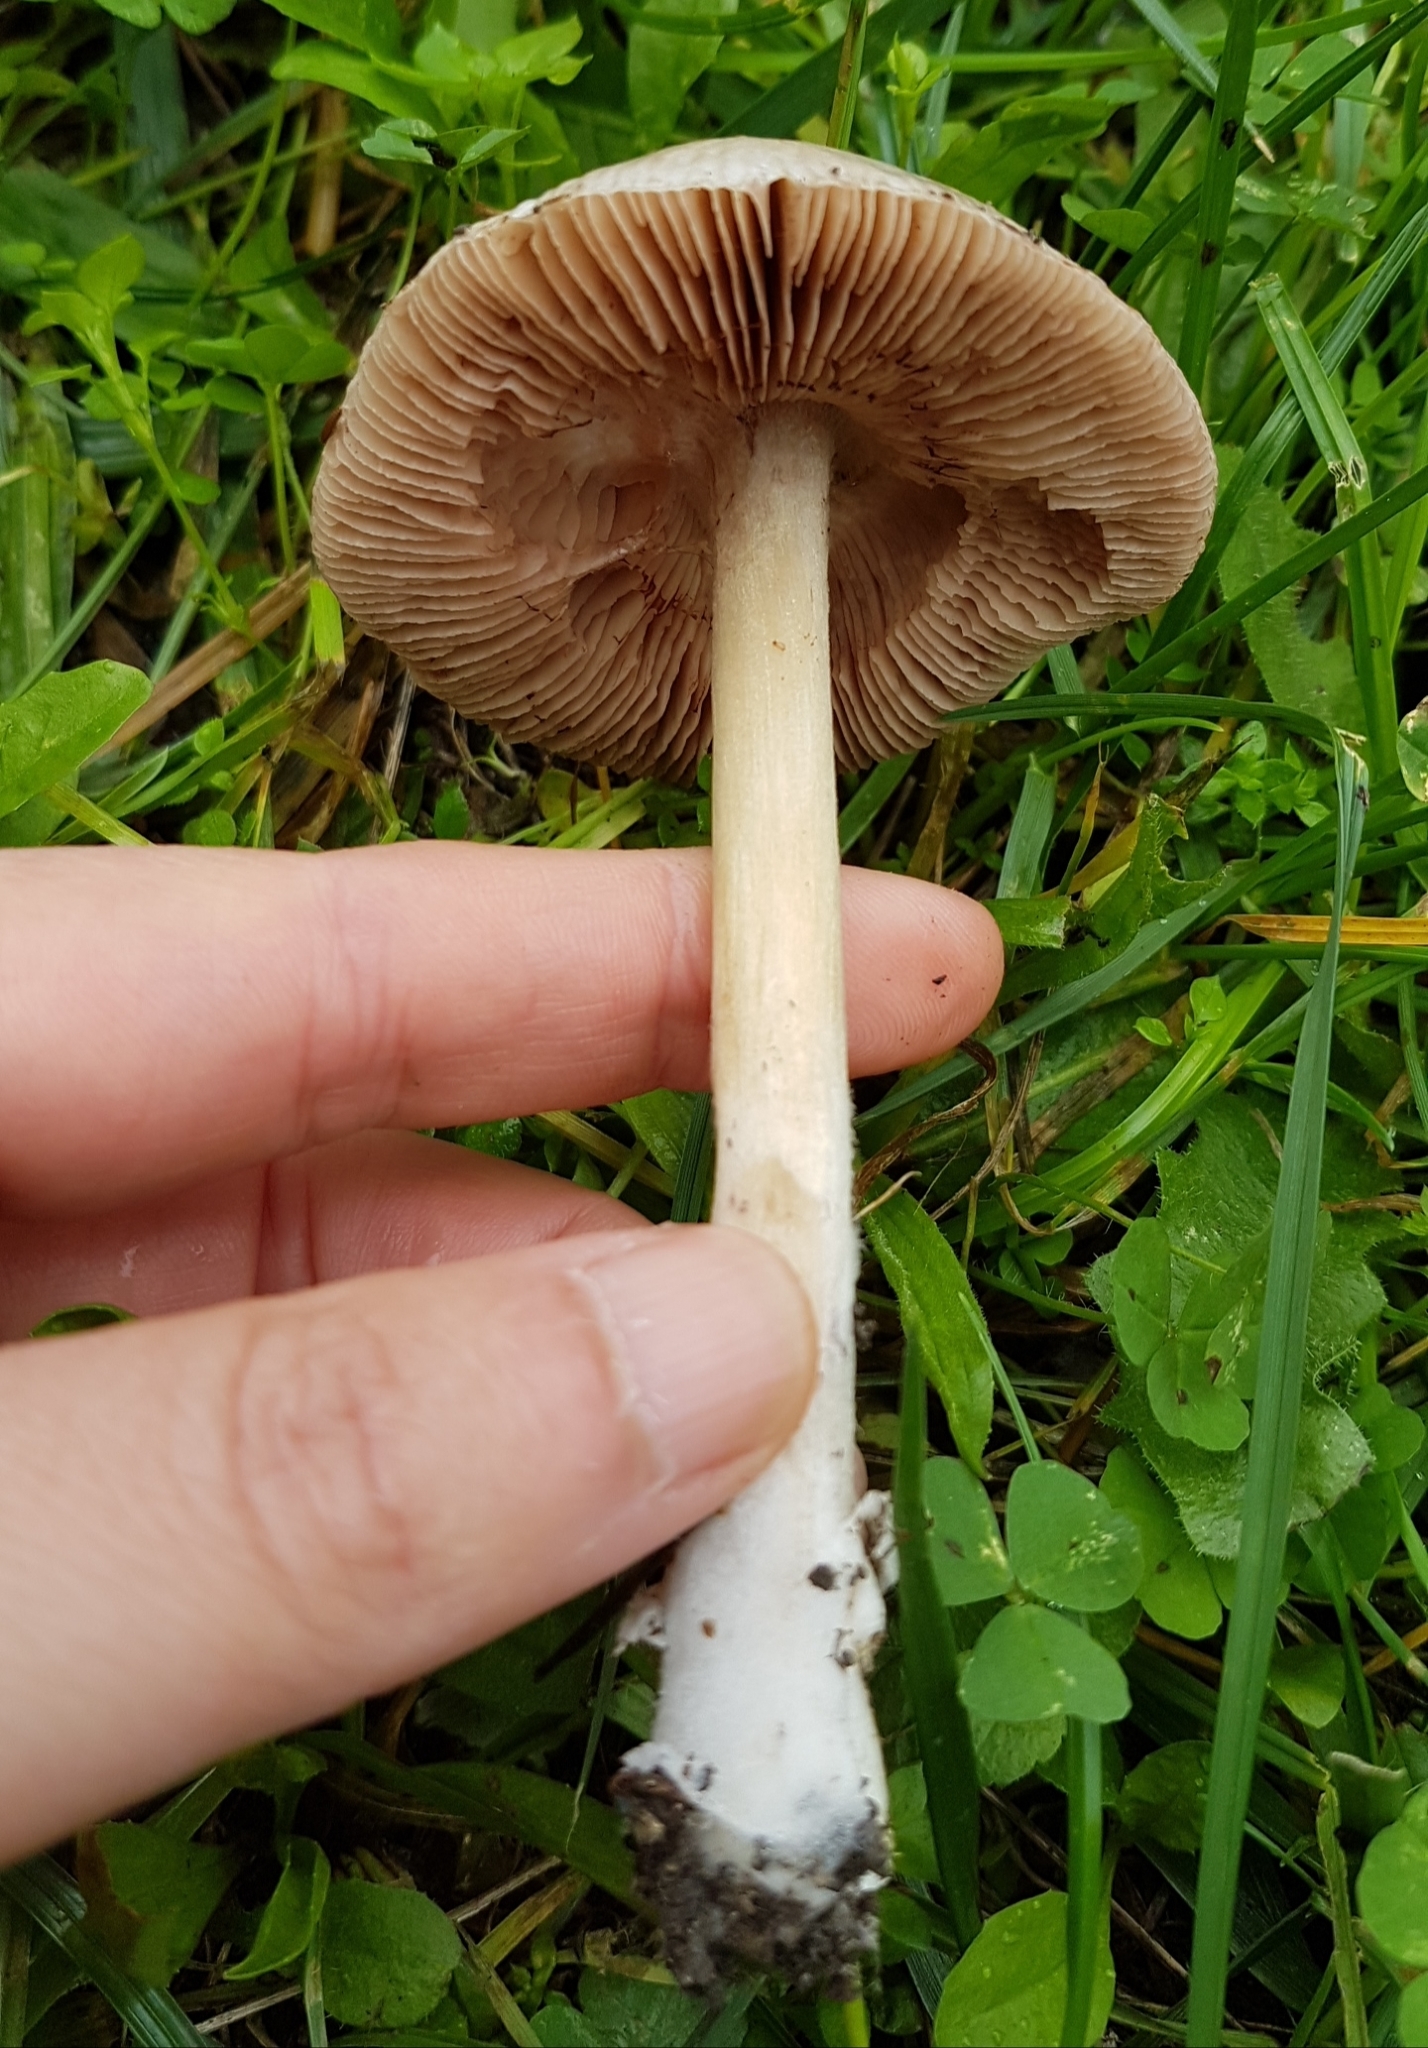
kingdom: Fungi
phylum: Basidiomycota
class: Agaricomycetes
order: Agaricales
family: Pluteaceae
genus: Volvopluteus
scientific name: Volvopluteus gloiocephalus
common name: Stubble rosegill
